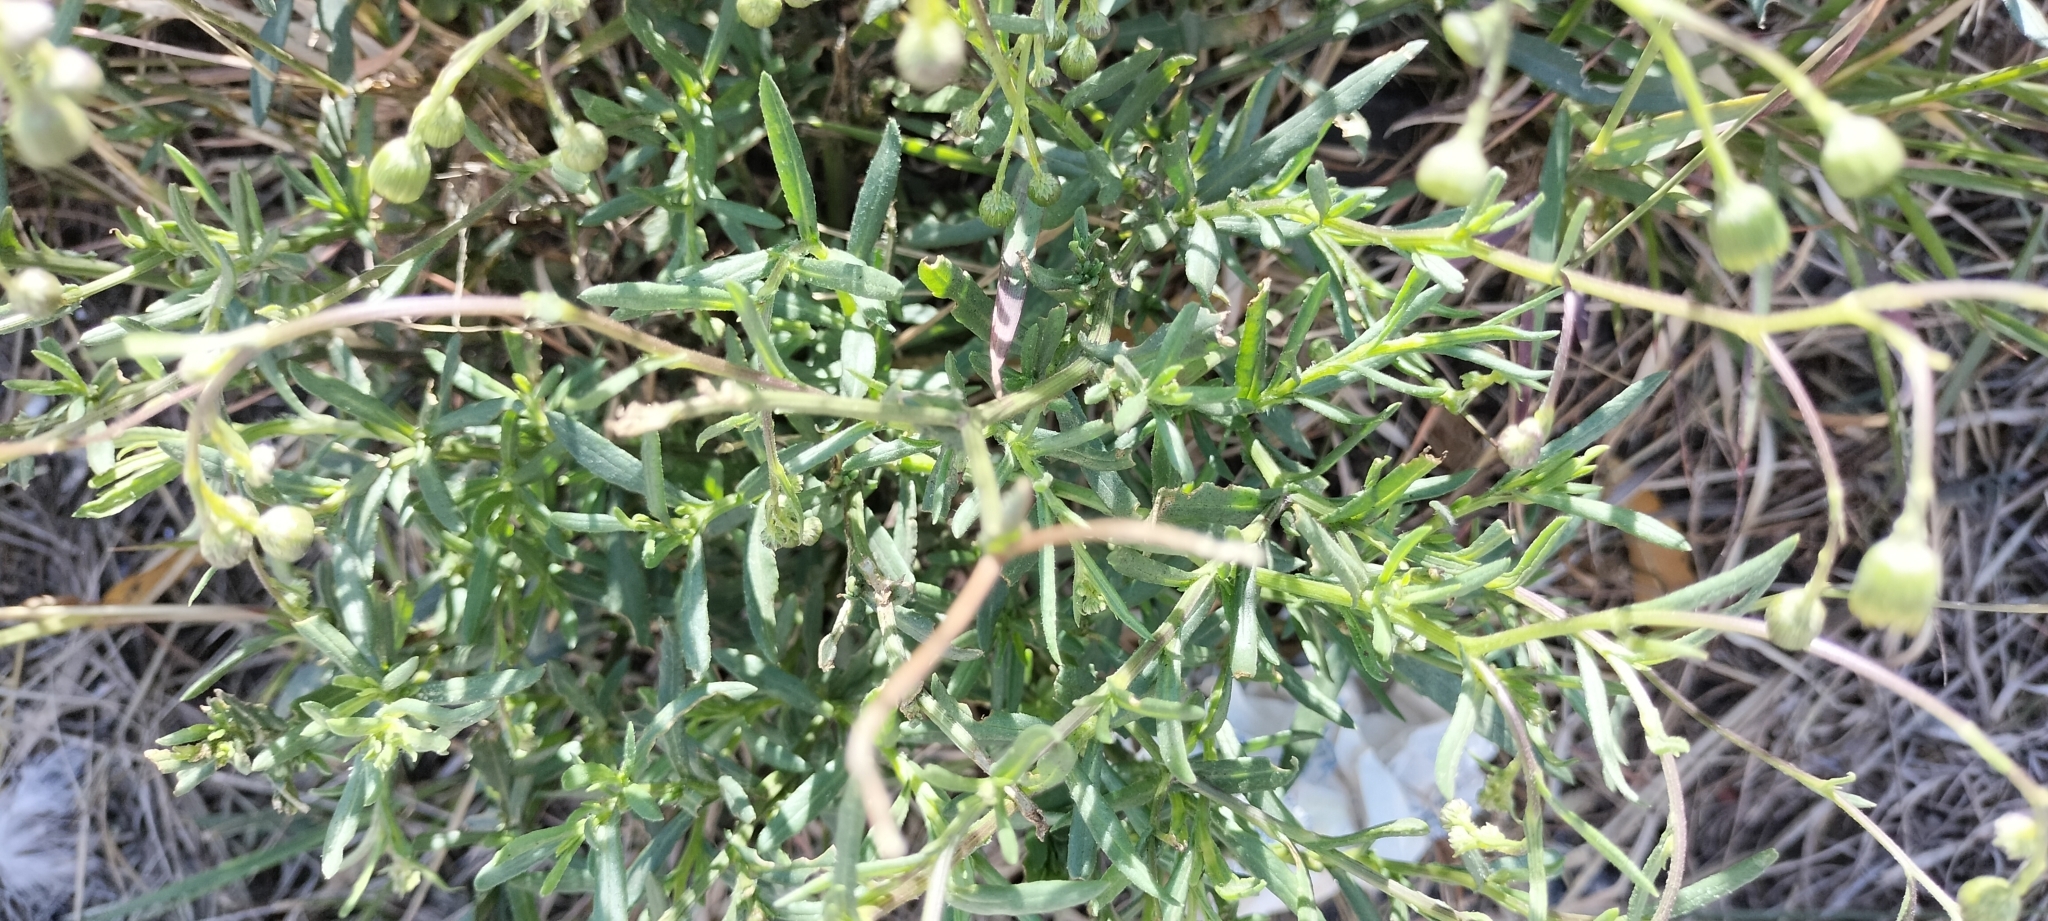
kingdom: Plantae
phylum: Tracheophyta
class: Magnoliopsida
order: Asterales
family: Asteraceae
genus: Senecio
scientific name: Senecio inaequidens
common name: Narrow-leaved ragwort
